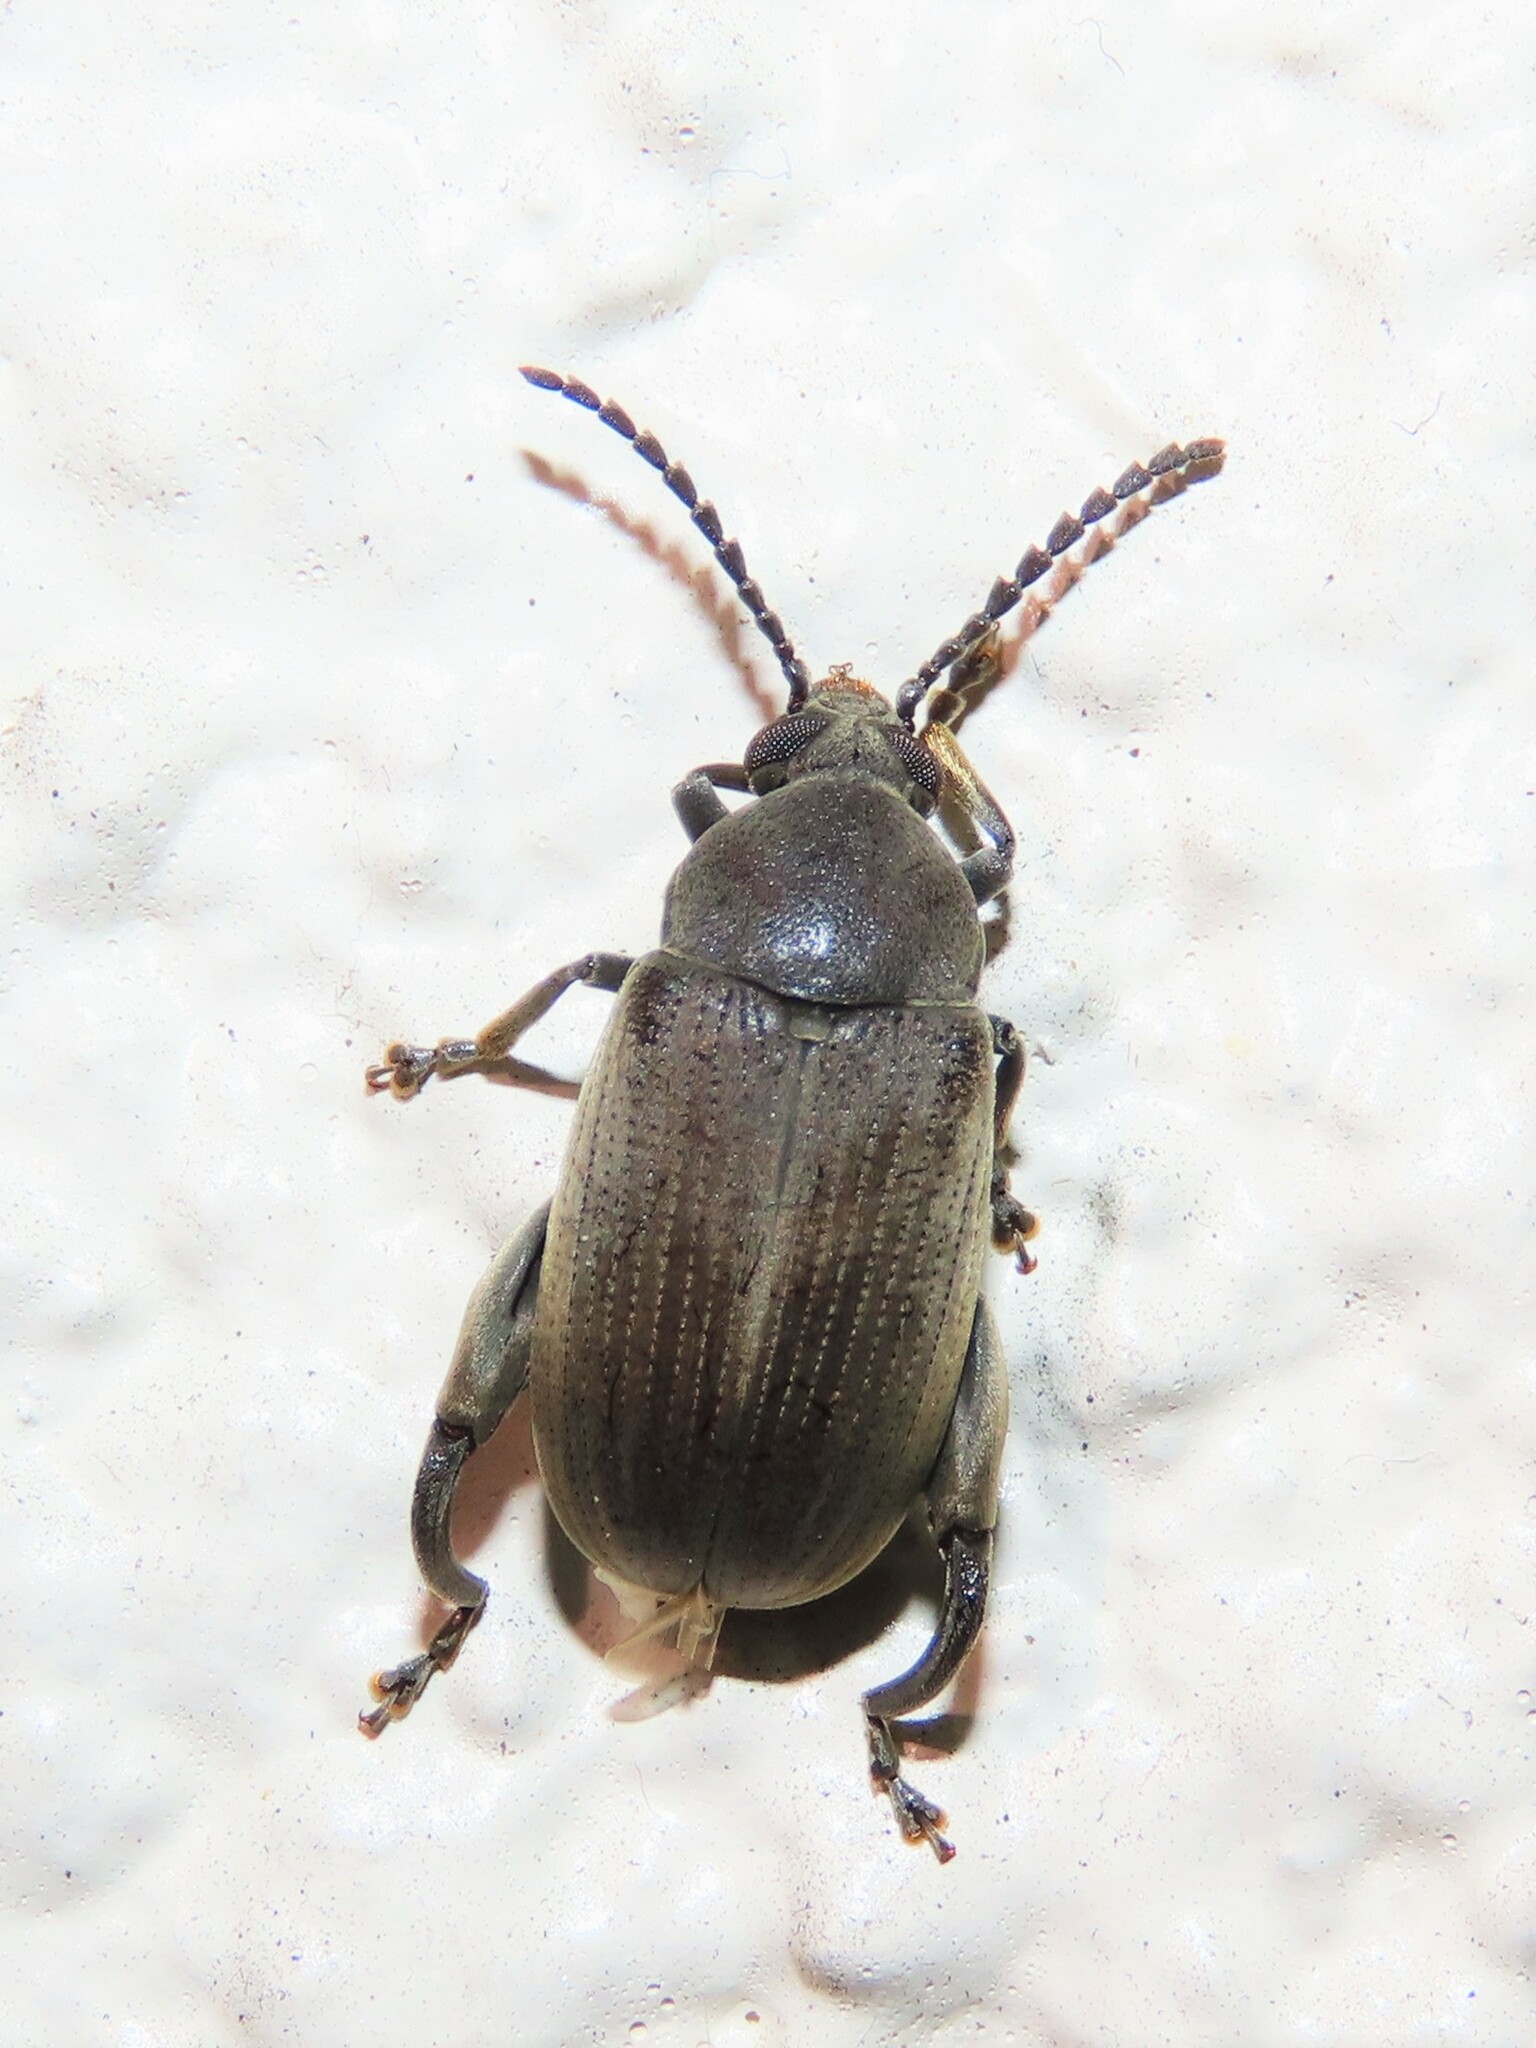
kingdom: Animalia
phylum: Arthropoda
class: Insecta
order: Coleoptera
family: Chrysomelidae
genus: Pachymerus
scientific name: Pachymerus
